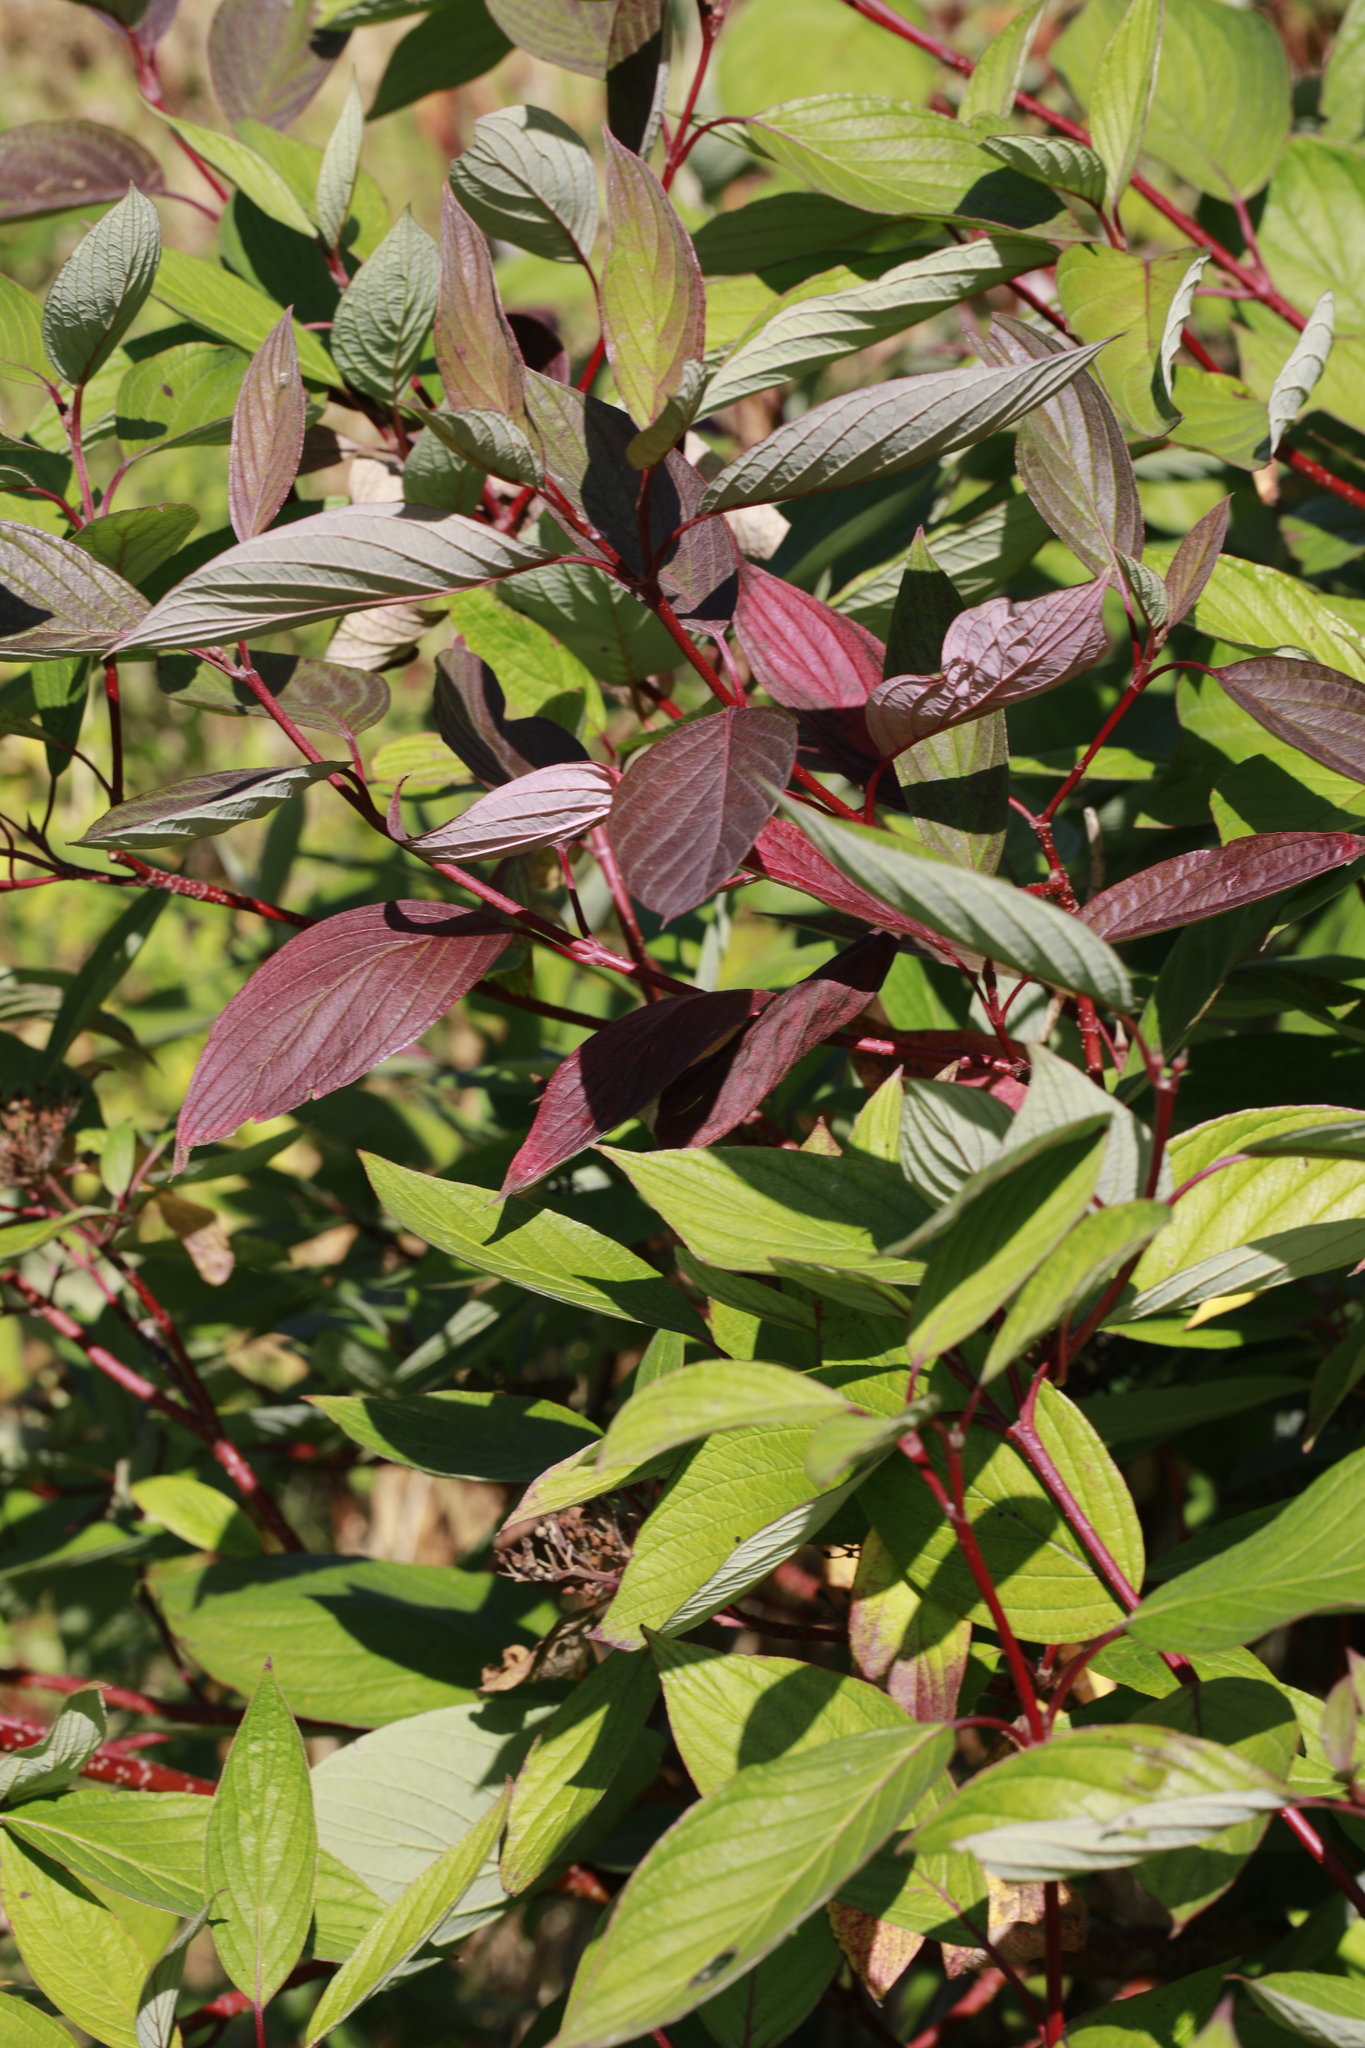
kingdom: Plantae
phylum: Tracheophyta
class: Magnoliopsida
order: Cornales
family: Cornaceae
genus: Cornus
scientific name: Cornus sanguinea
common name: Dogwood
